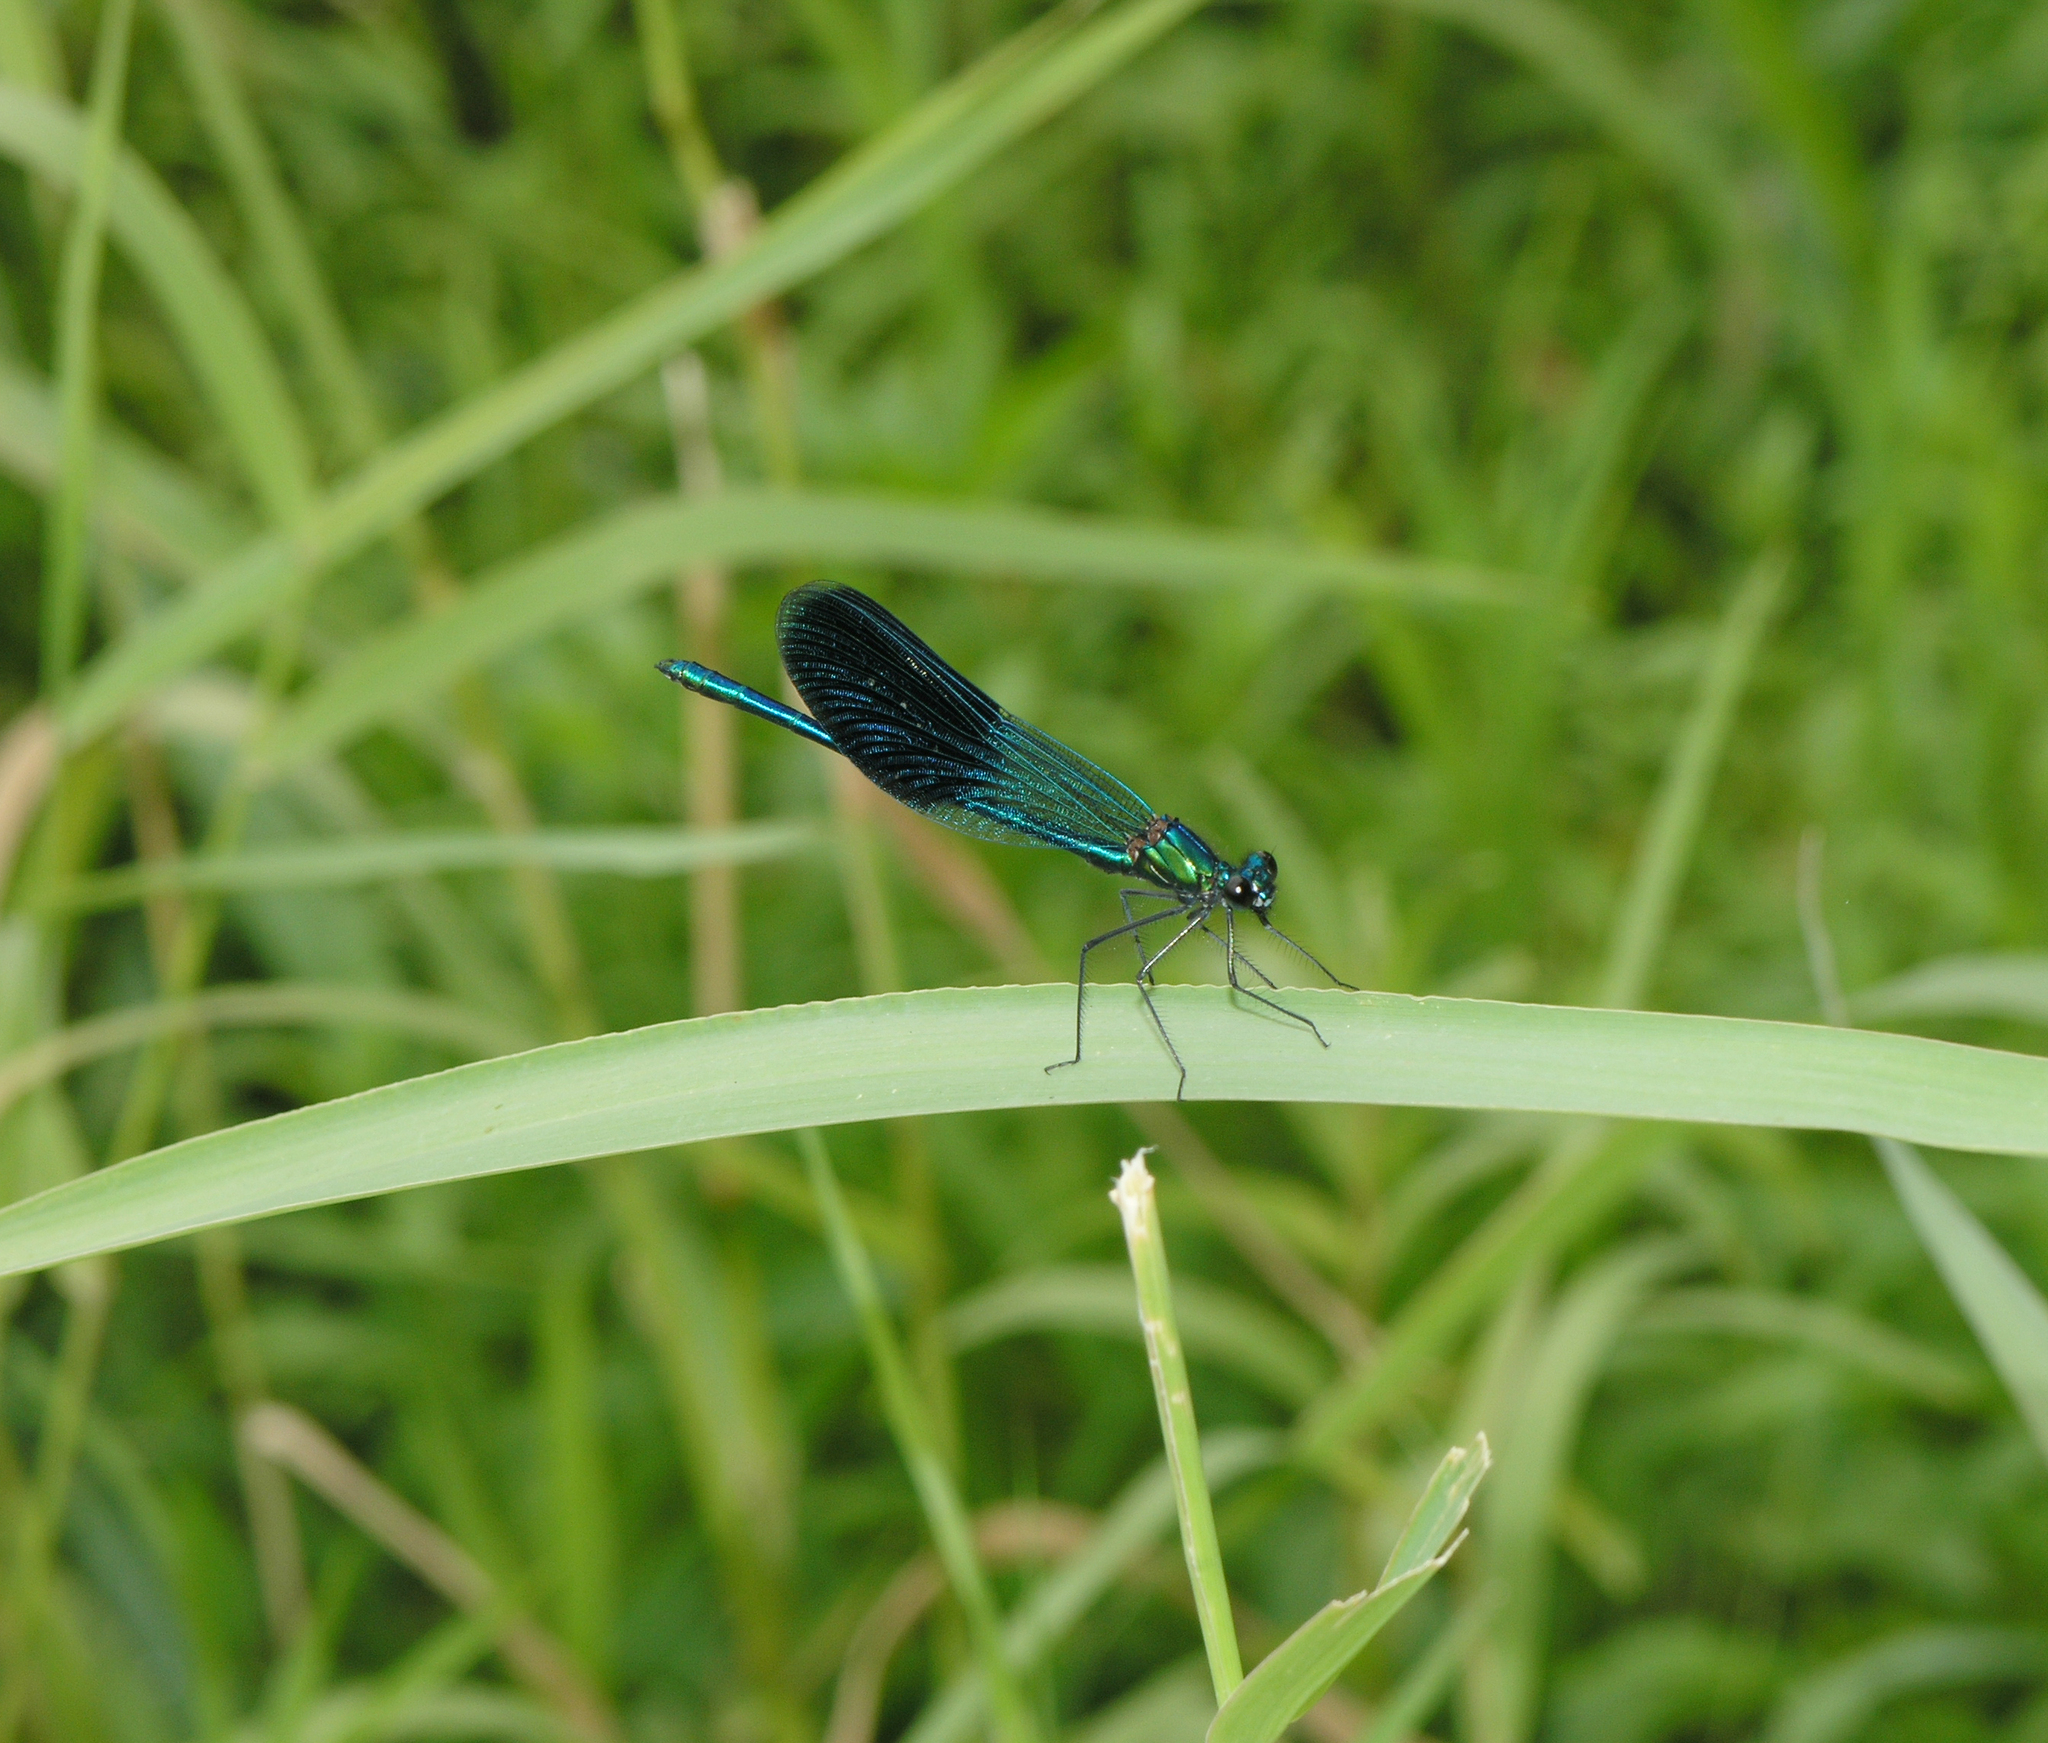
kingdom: Animalia
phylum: Arthropoda
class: Insecta
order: Odonata
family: Calopterygidae
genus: Calopteryx
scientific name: Calopteryx splendens
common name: Banded demoiselle
